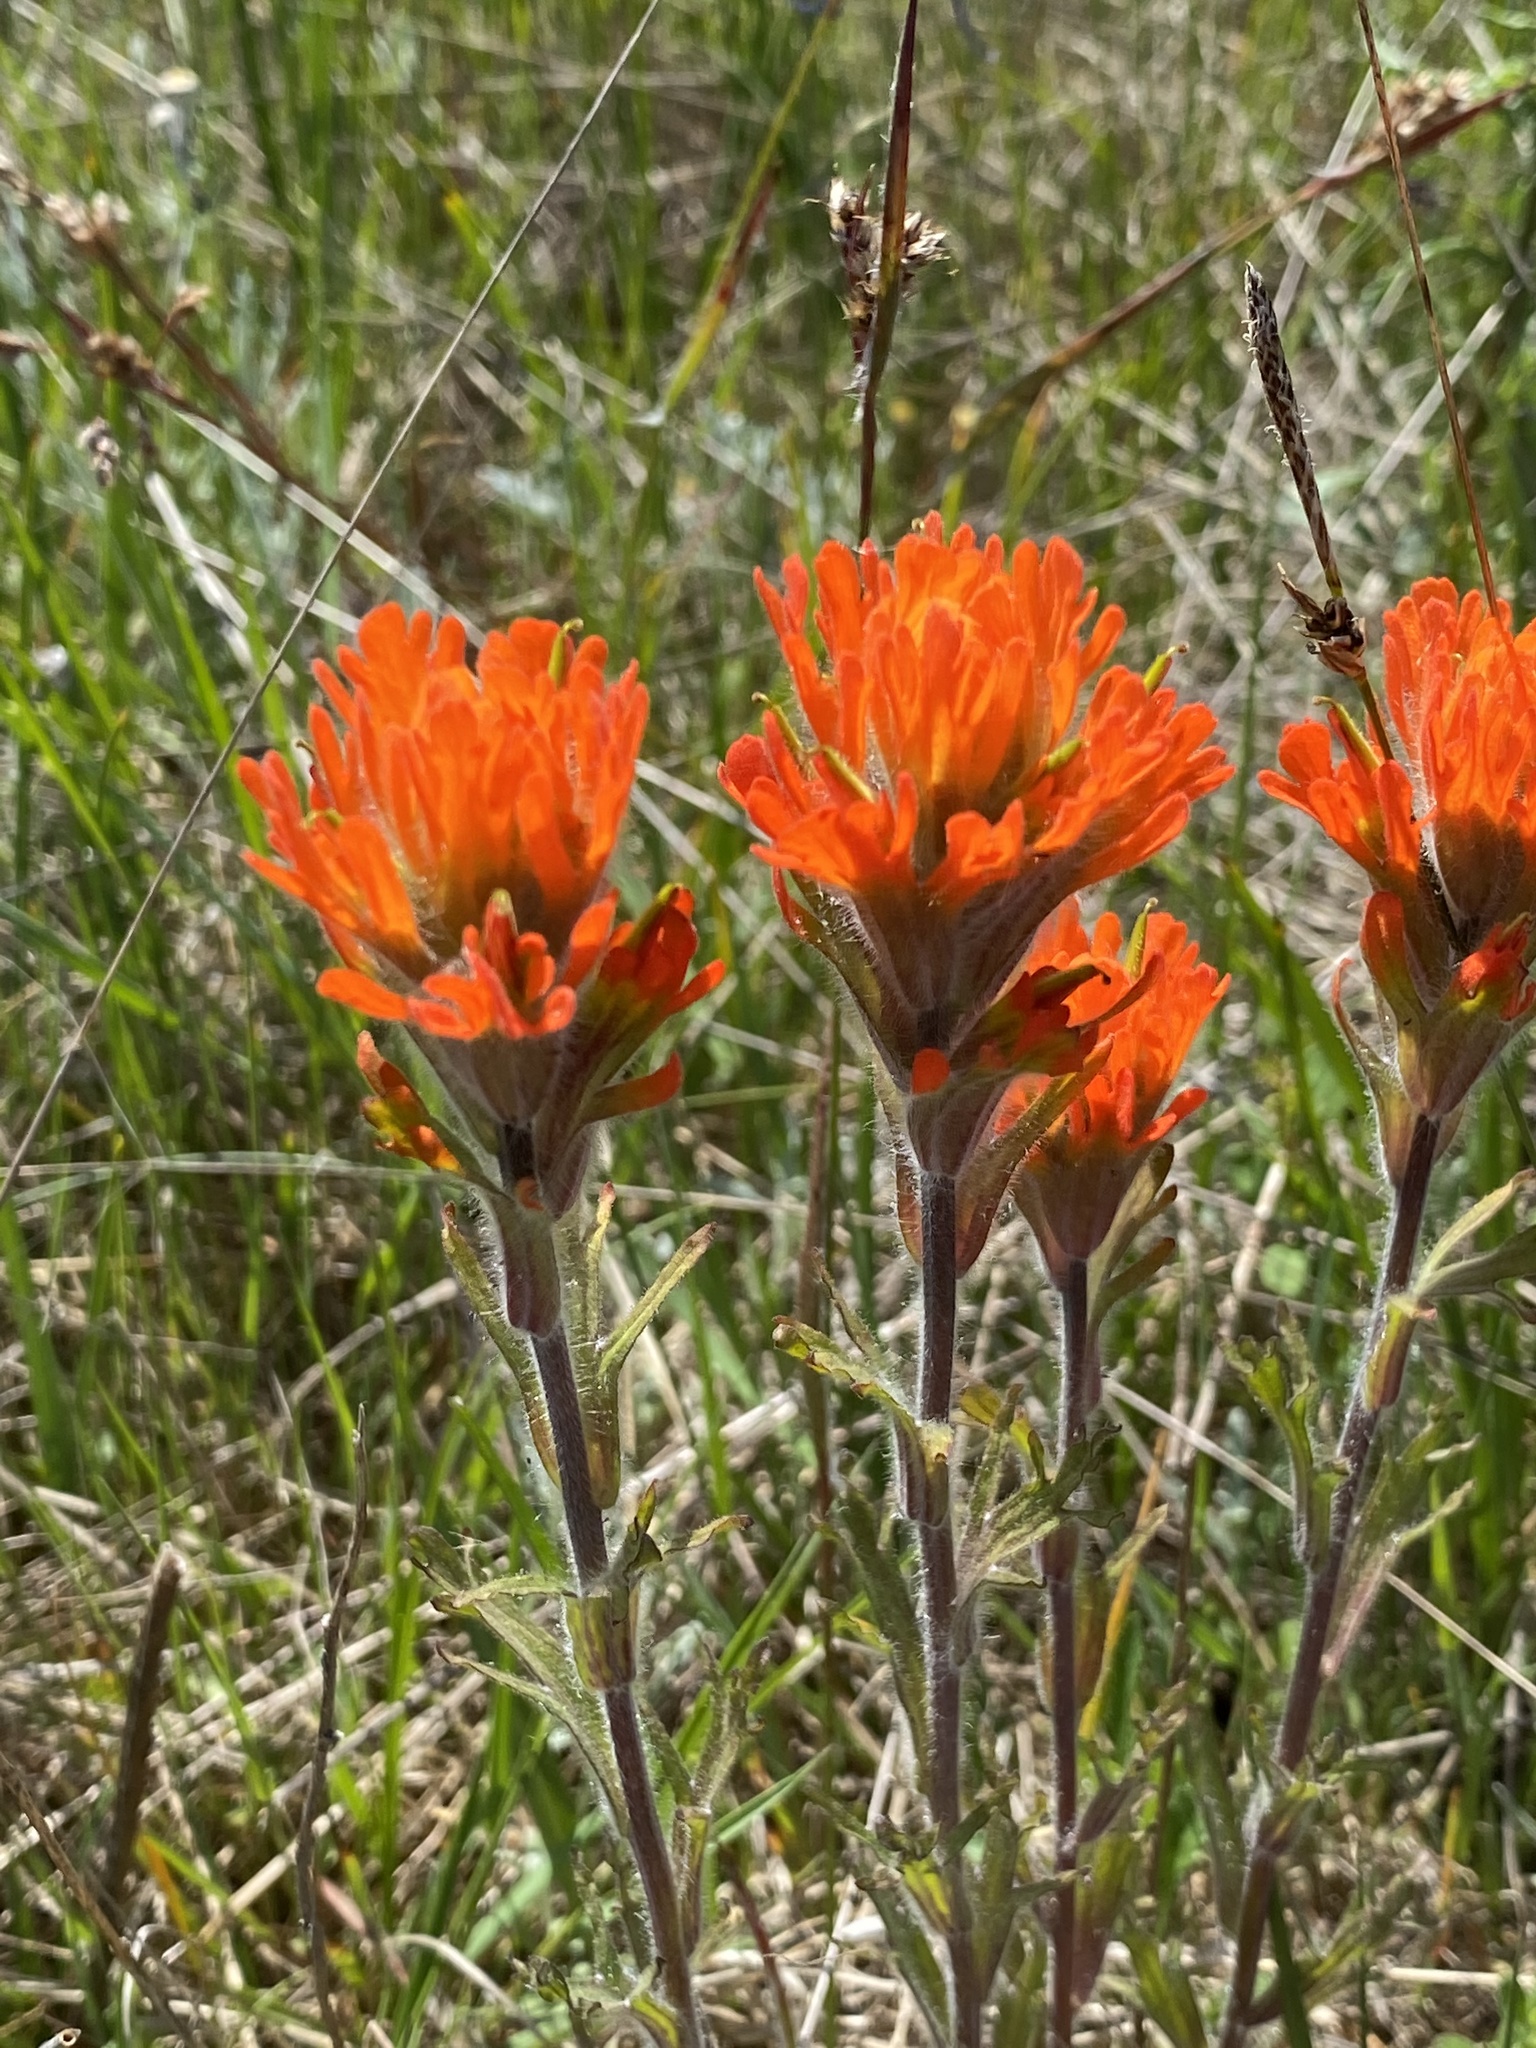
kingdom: Plantae
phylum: Tracheophyta
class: Magnoliopsida
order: Lamiales
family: Orobanchaceae
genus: Castilleja
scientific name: Castilleja hispida
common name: Bristly paintbrush
